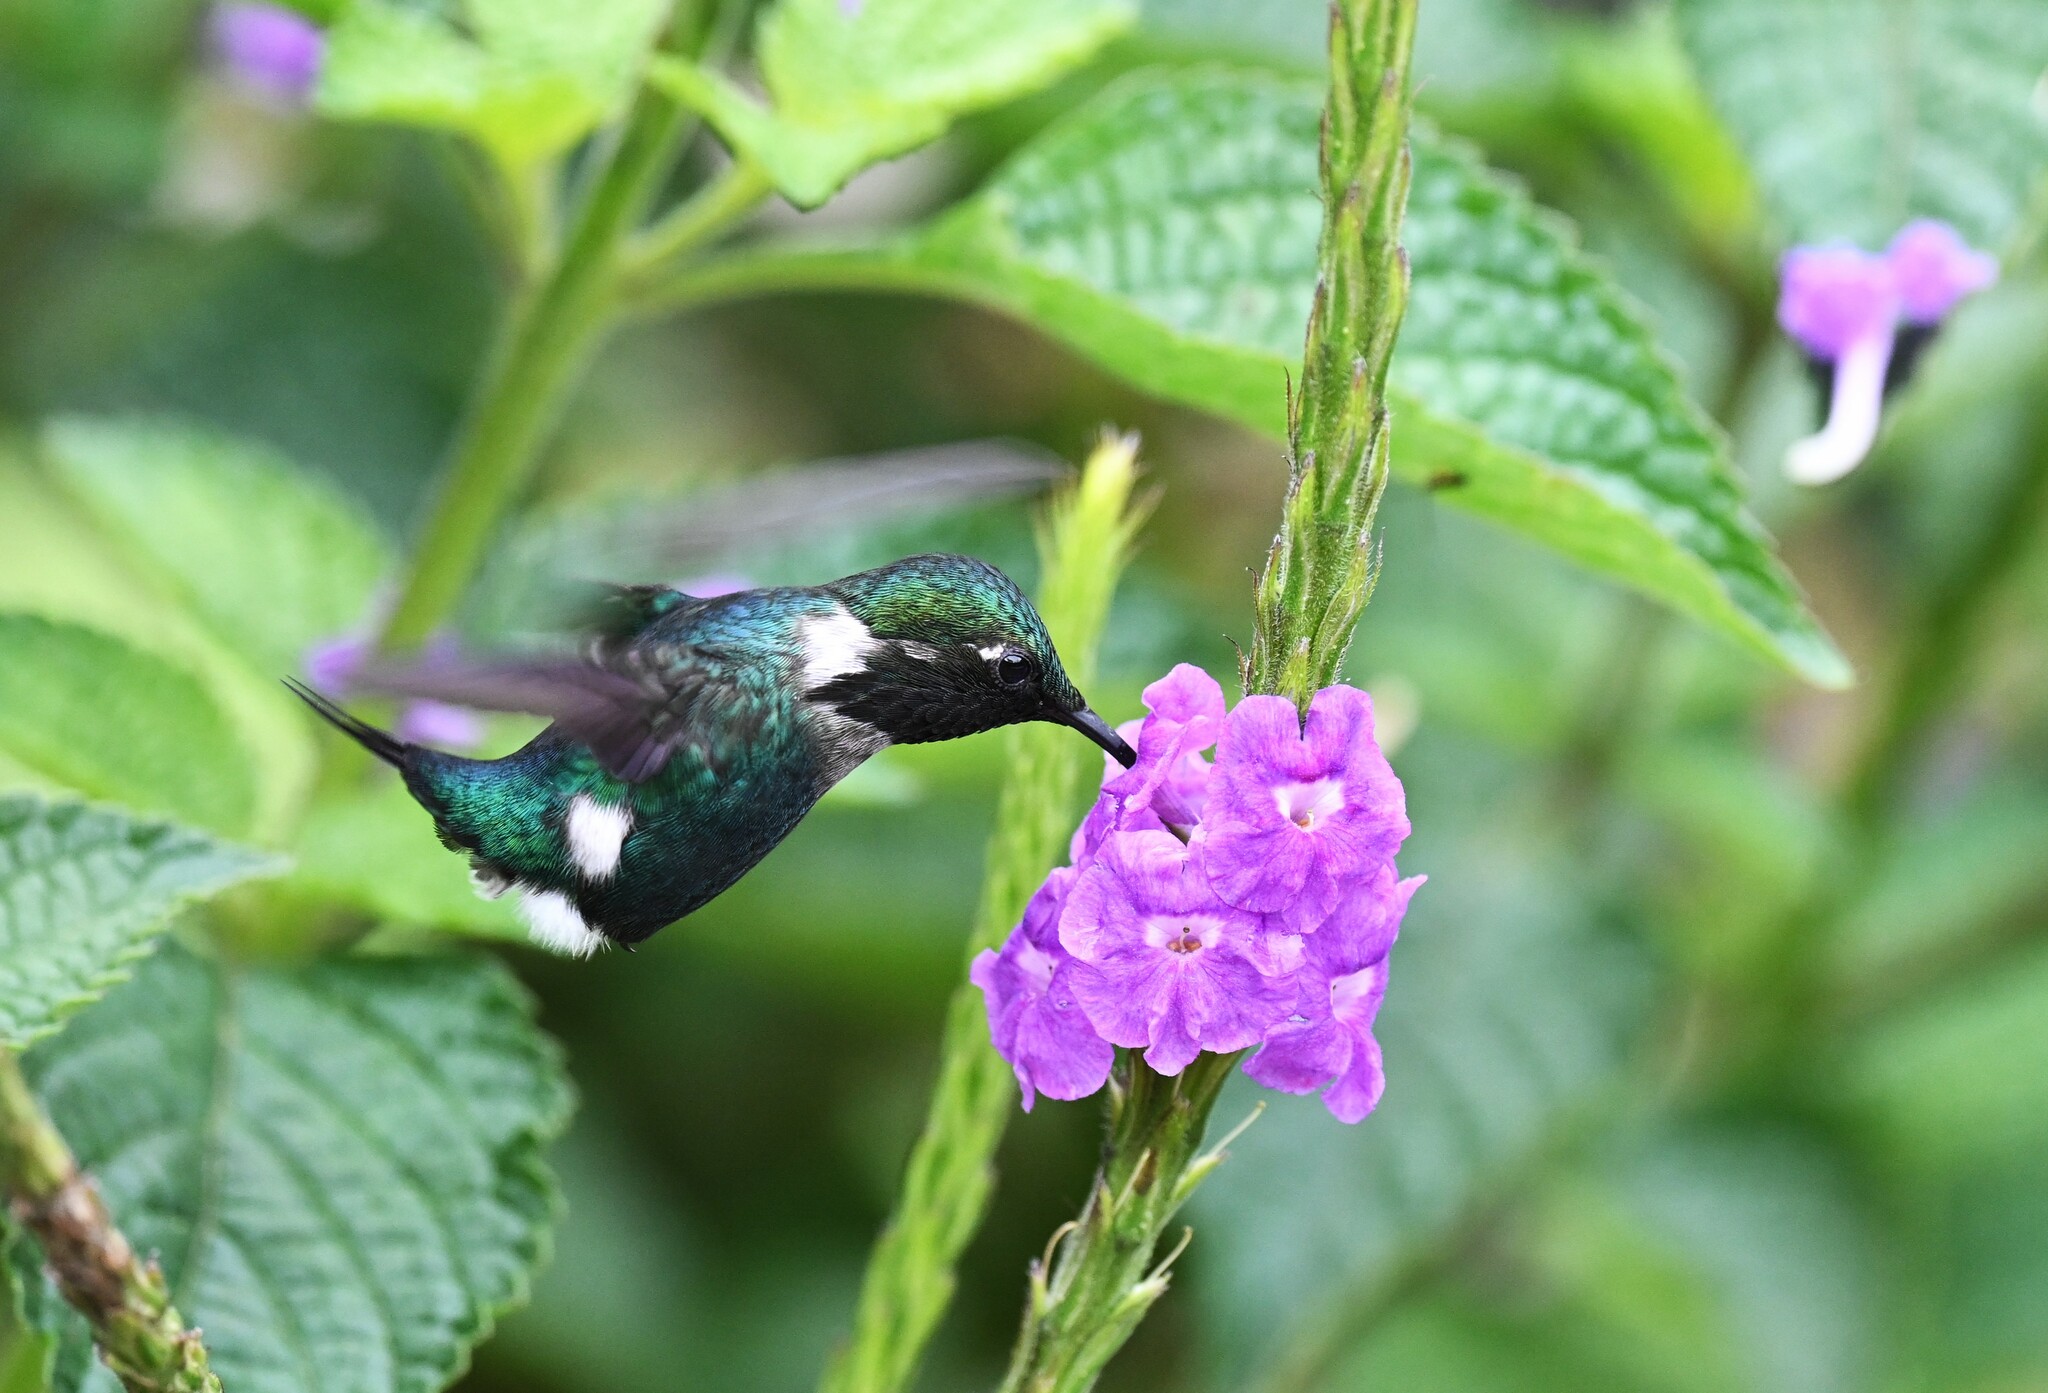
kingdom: Animalia
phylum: Chordata
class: Aves
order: Apodiformes
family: Trochilidae
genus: Chaetocercus
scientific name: Chaetocercus heliodor
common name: Gorgeted woodstar
